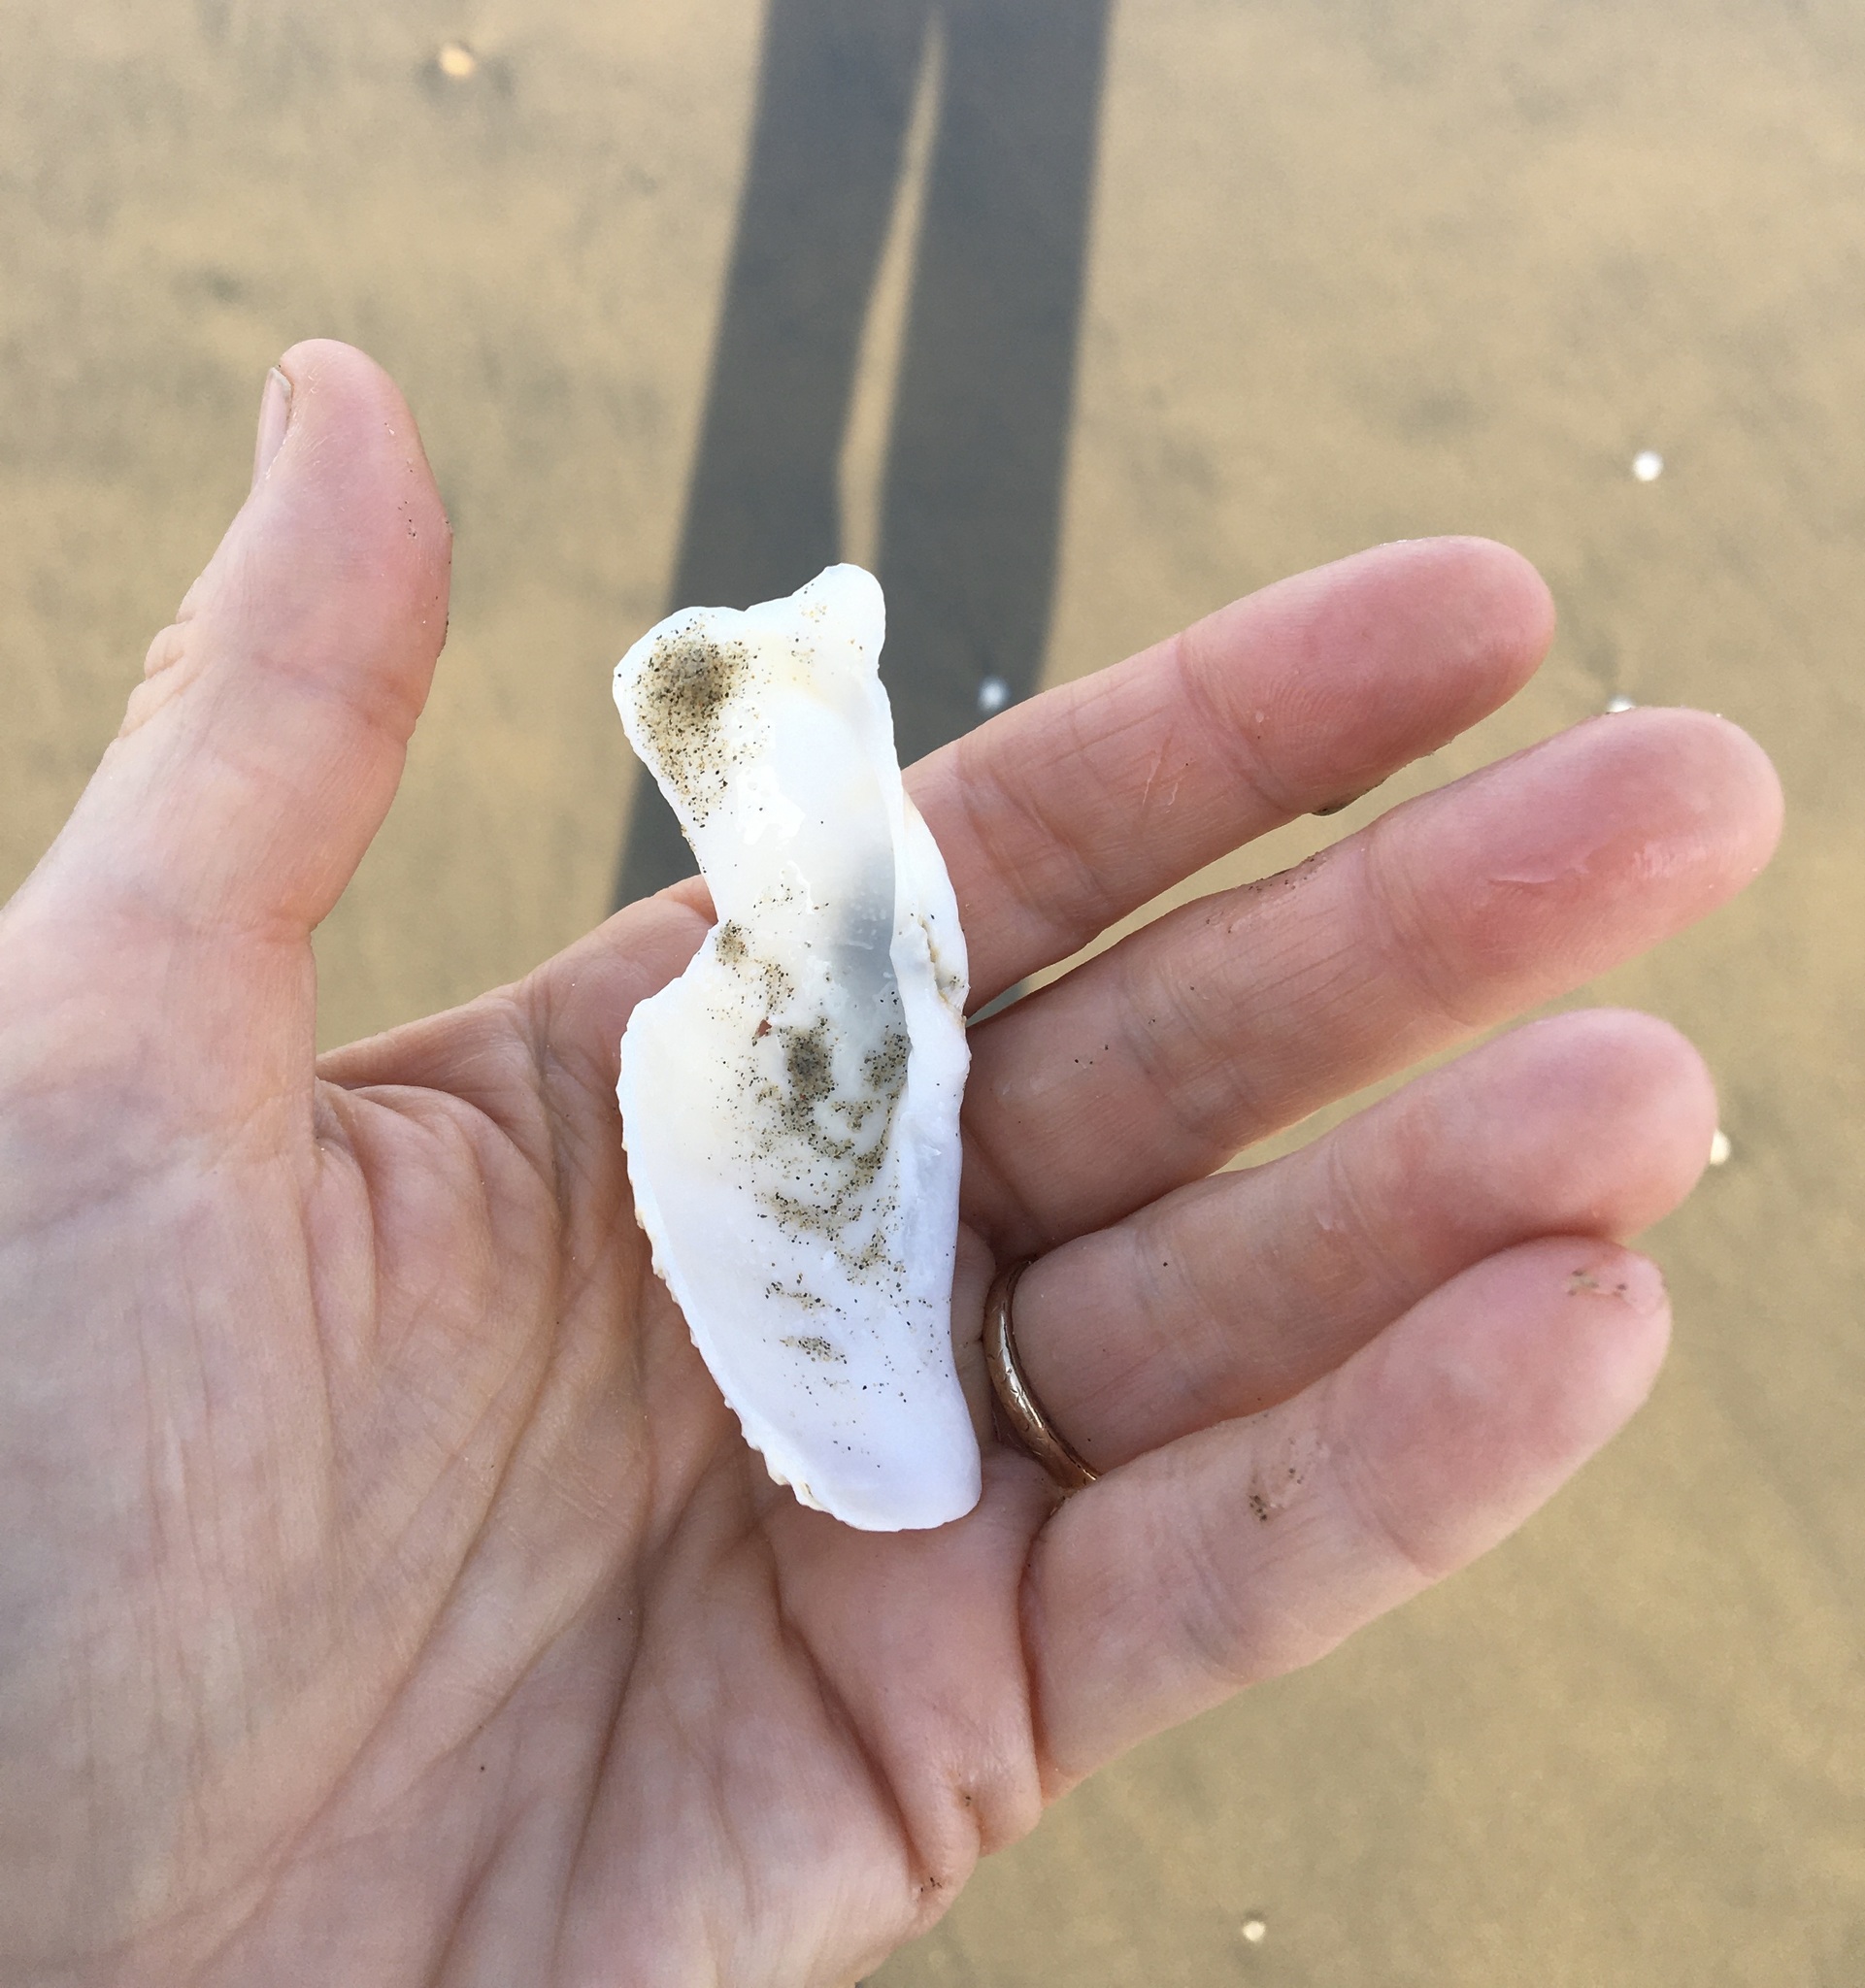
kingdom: Animalia
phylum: Mollusca
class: Bivalvia
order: Myida
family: Pholadidae
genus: Zirfaea
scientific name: Zirfaea pilsbryi
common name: Rough piddock
